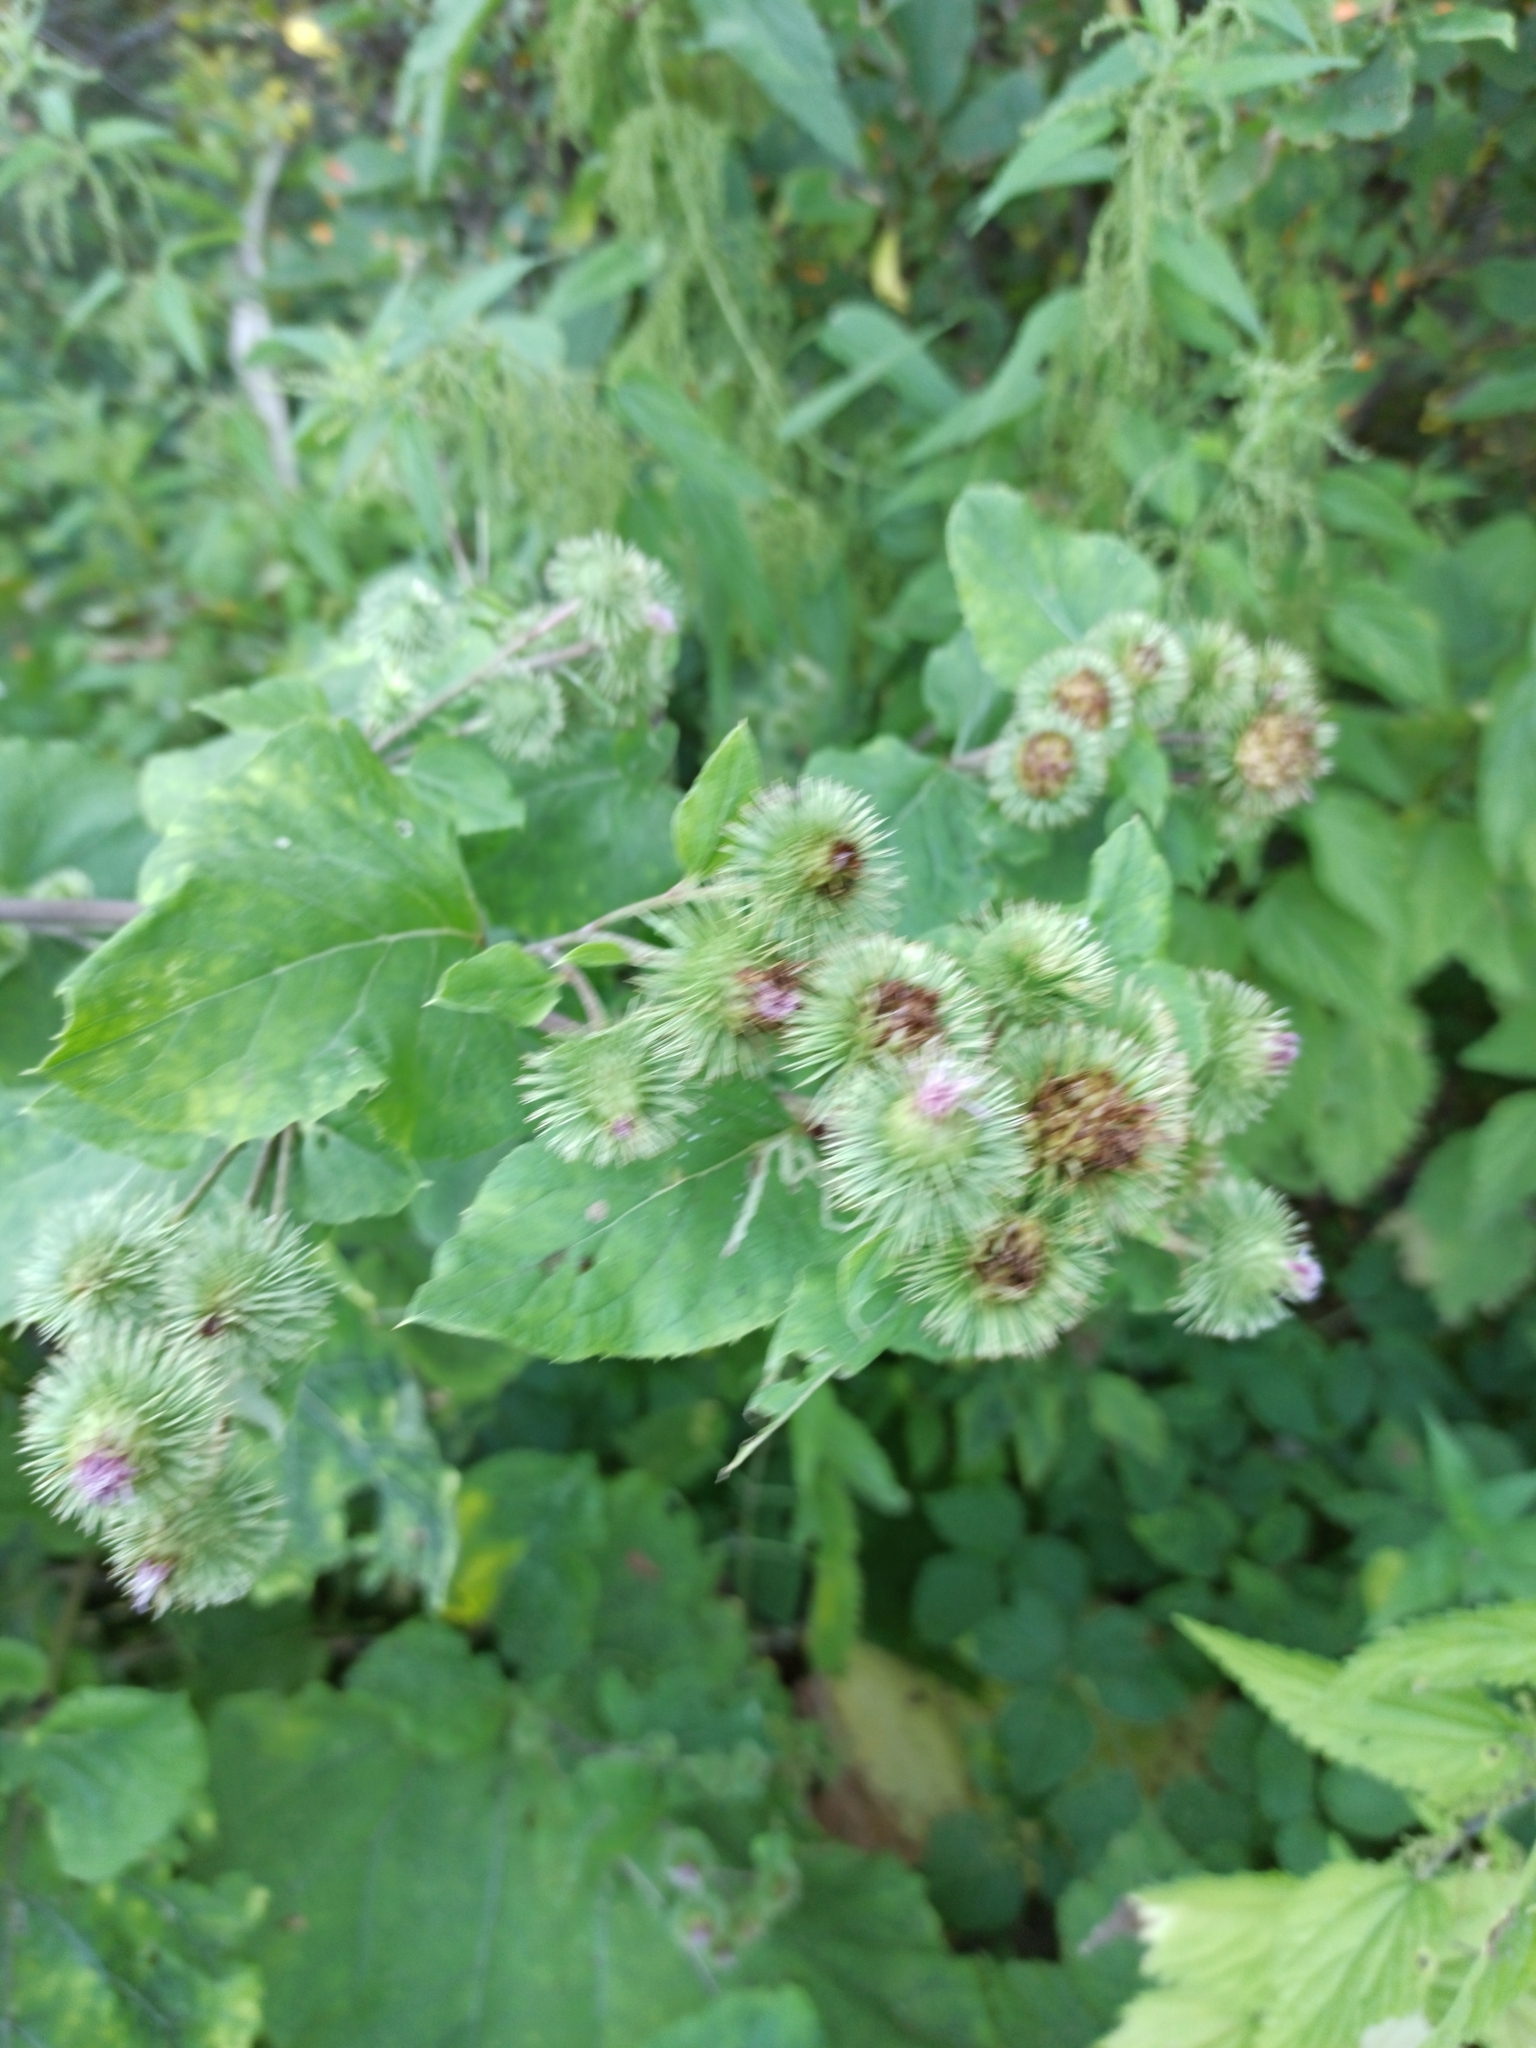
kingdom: Plantae
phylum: Tracheophyta
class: Magnoliopsida
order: Asterales
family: Asteraceae
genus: Arctium
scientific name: Arctium lappa
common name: Greater burdock
